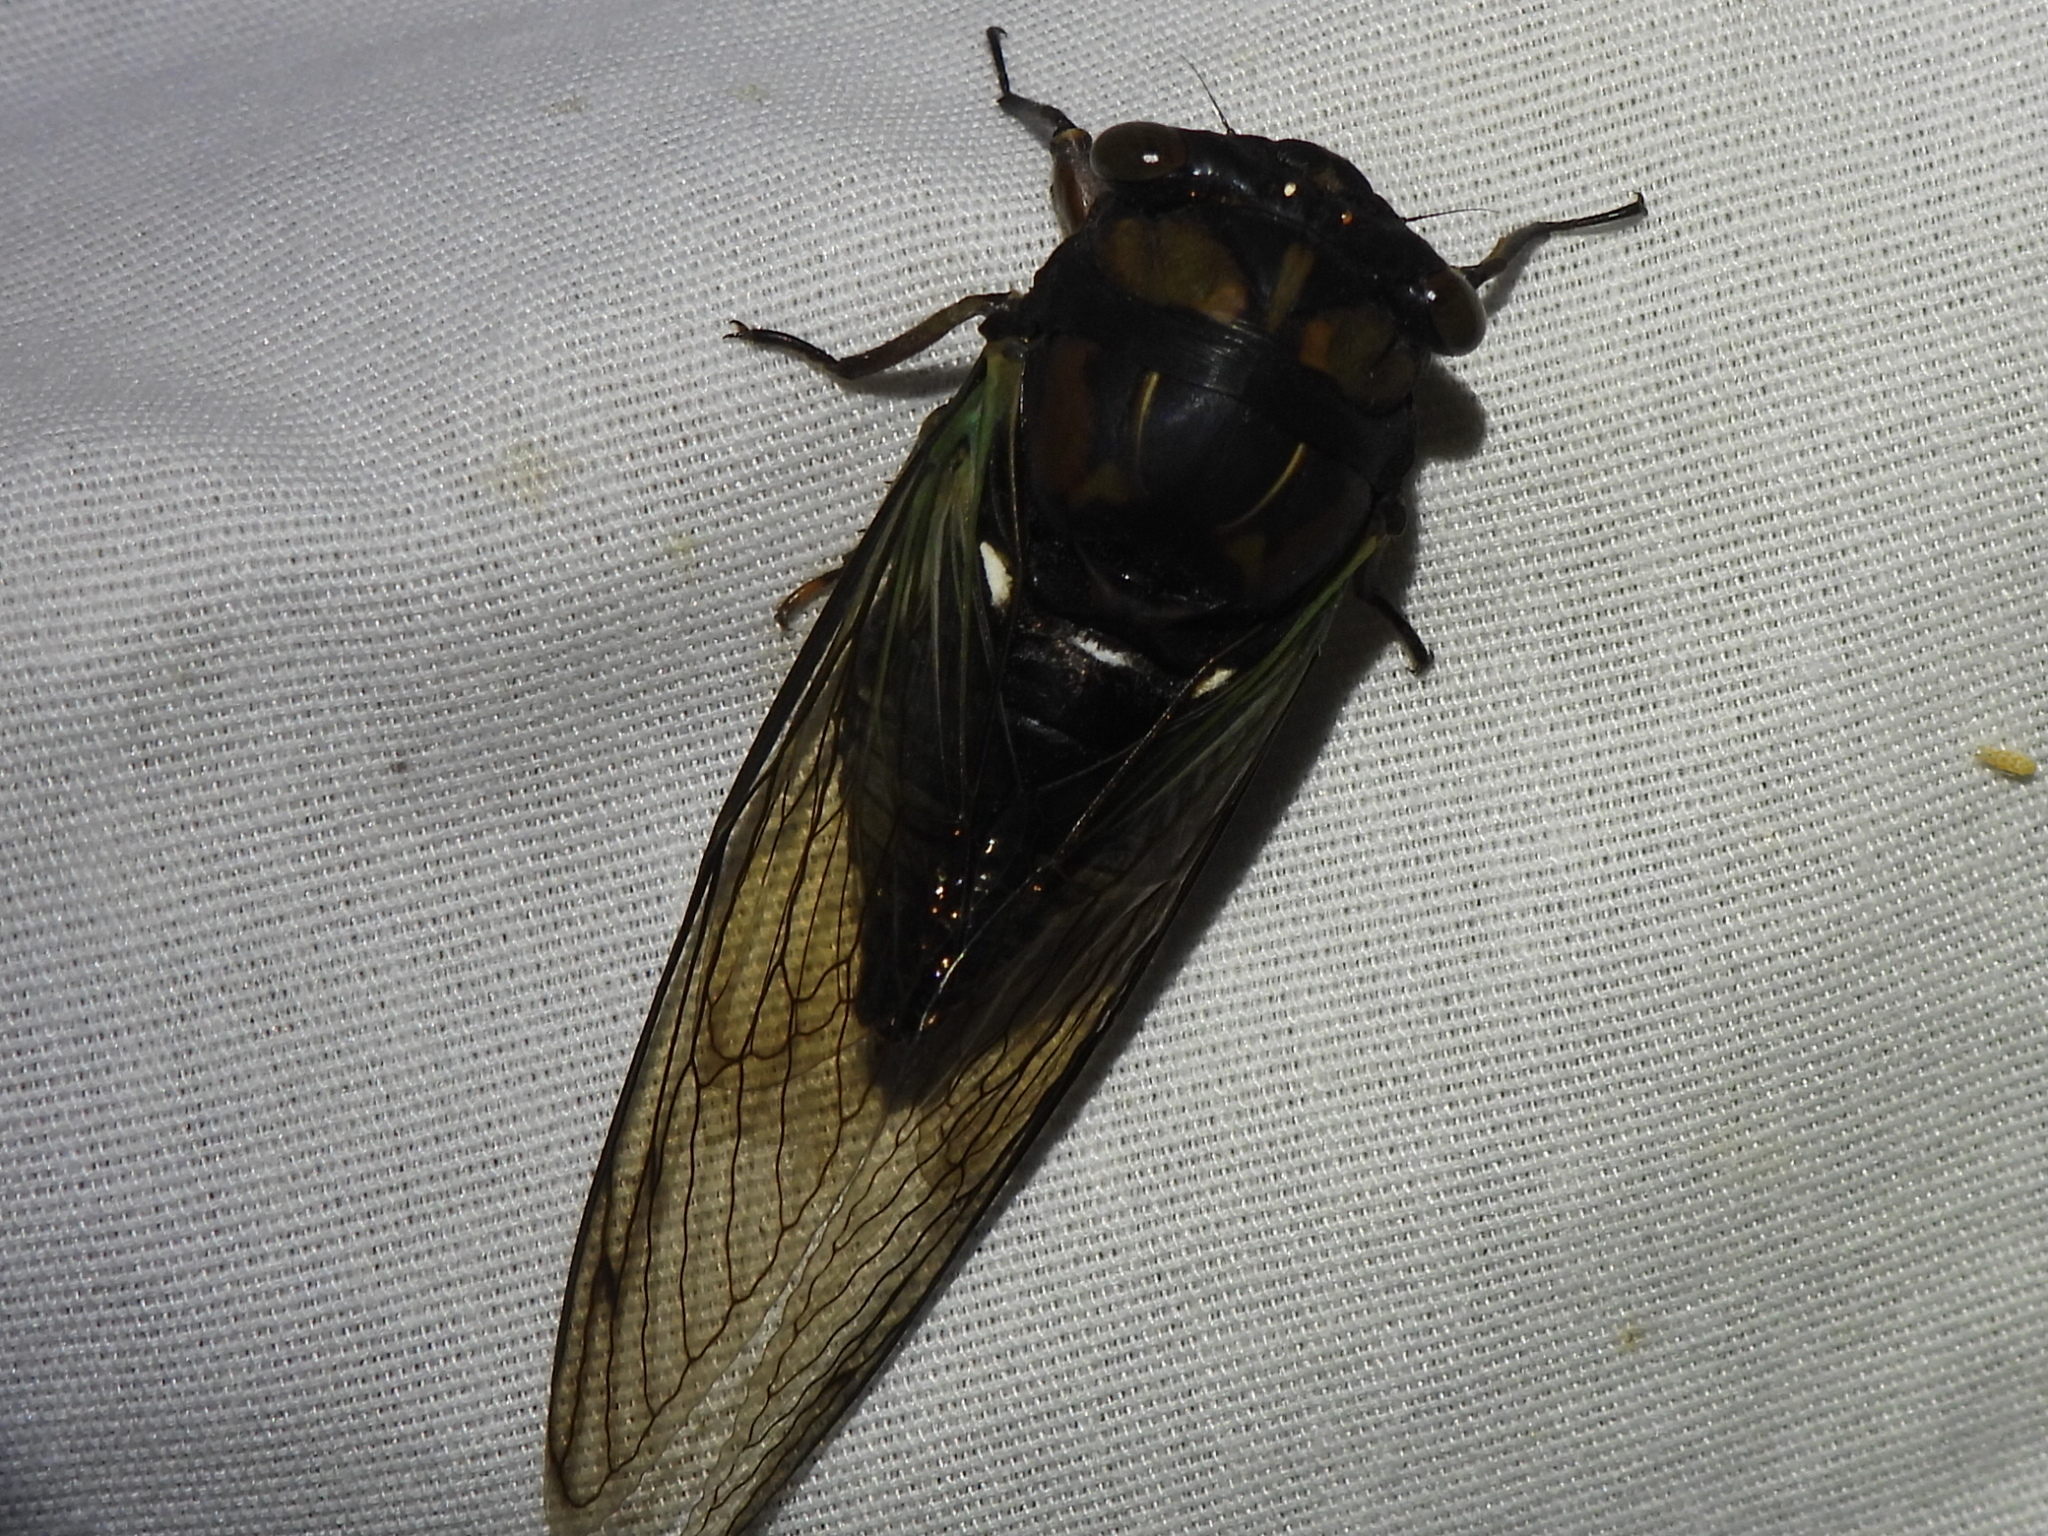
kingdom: Animalia
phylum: Arthropoda
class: Insecta
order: Hemiptera
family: Cicadidae
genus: Neotibicen
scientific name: Neotibicen lyricen
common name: Lyric cicada
